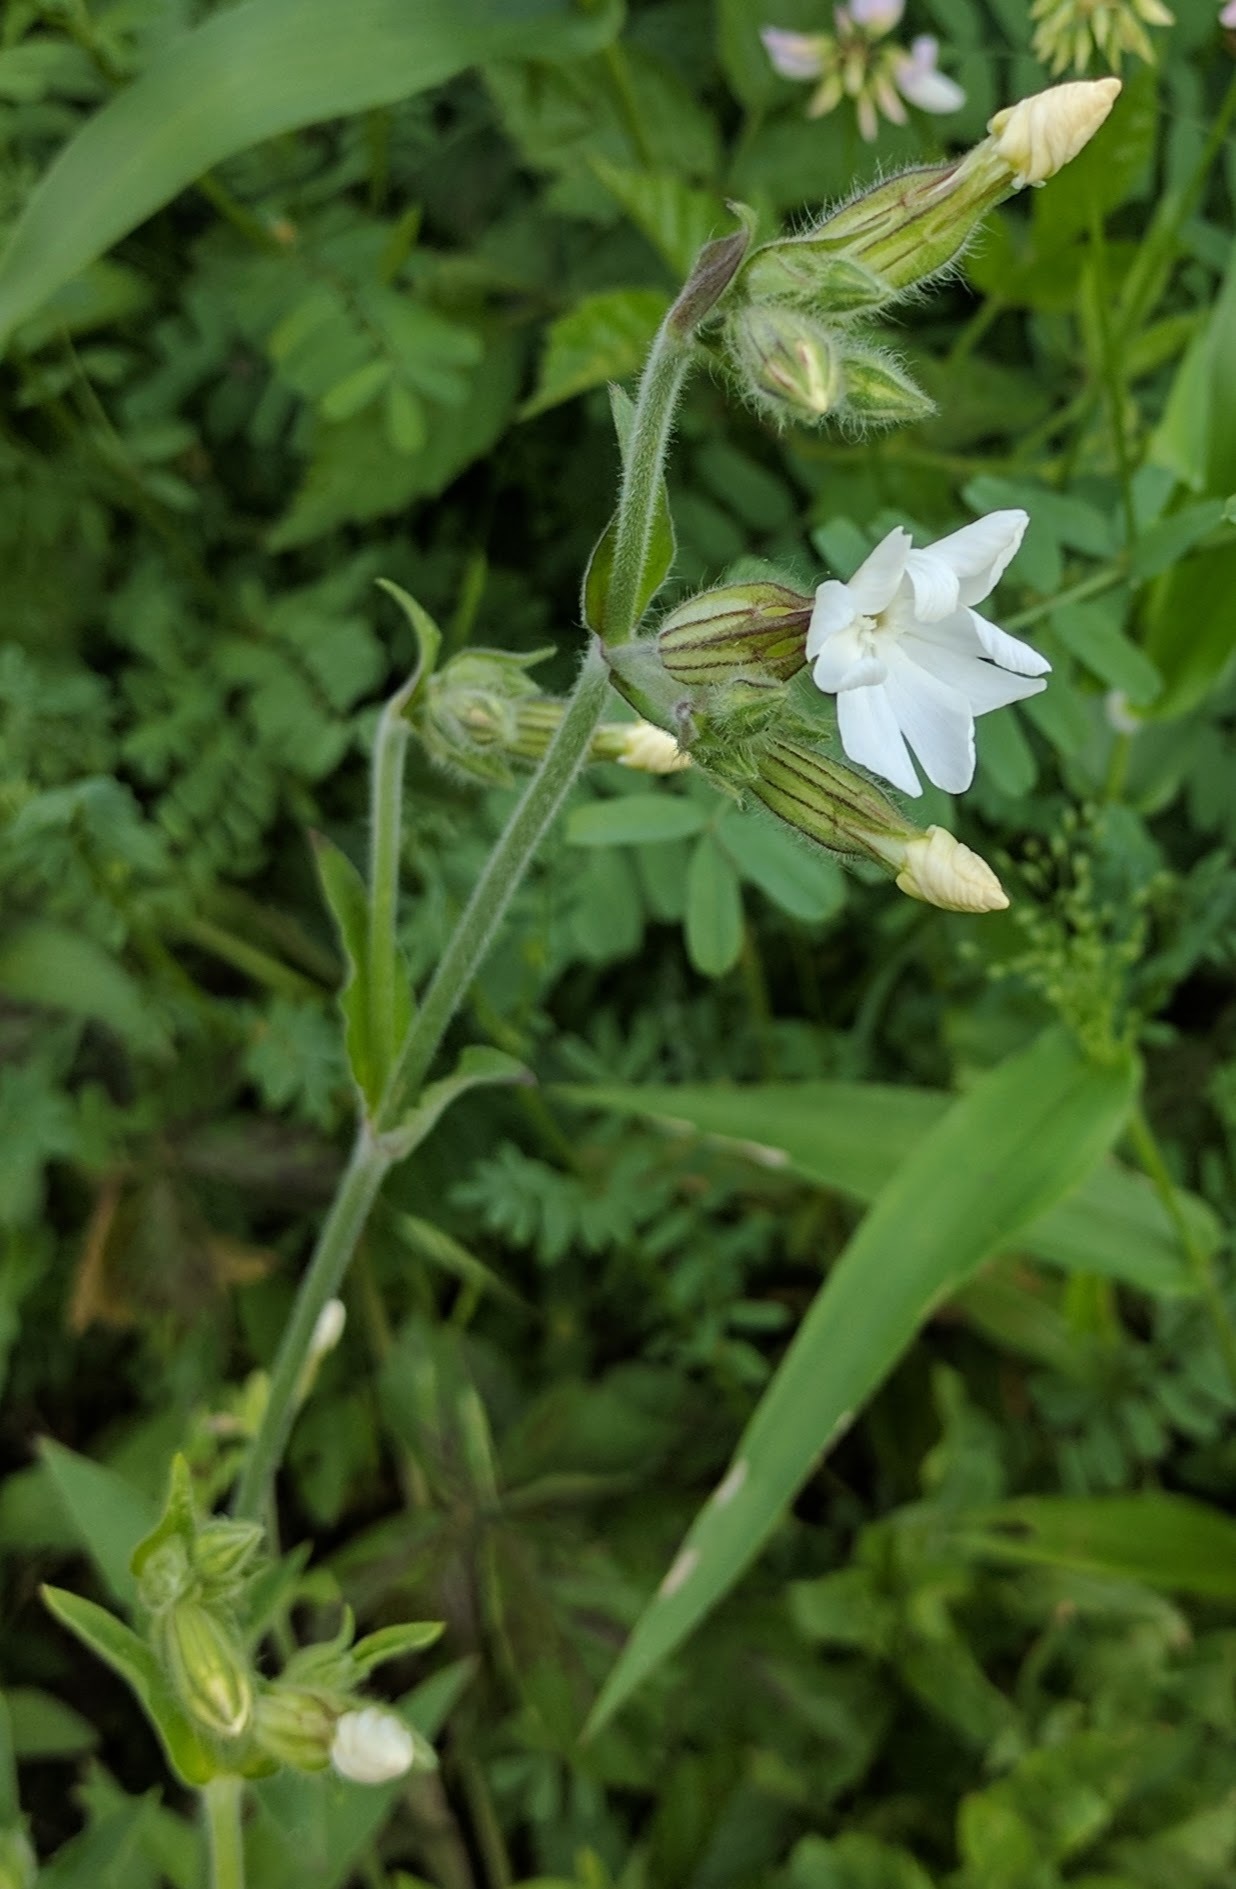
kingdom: Plantae
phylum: Tracheophyta
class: Magnoliopsida
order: Caryophyllales
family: Caryophyllaceae
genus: Silene
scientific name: Silene latifolia
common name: White campion
